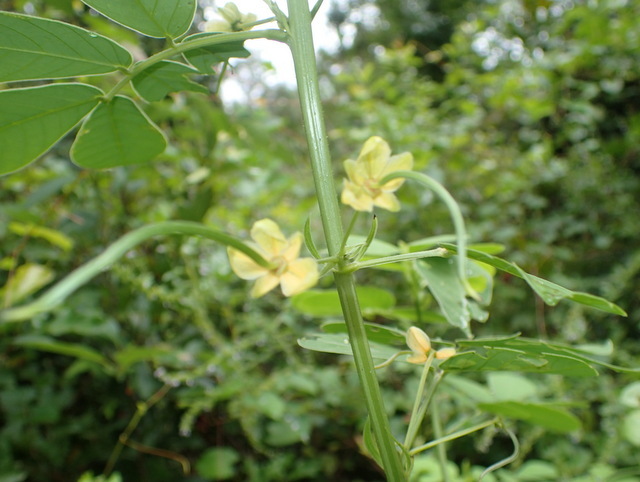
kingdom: Plantae
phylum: Tracheophyta
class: Magnoliopsida
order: Fabales
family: Fabaceae
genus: Senna
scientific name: Senna obtusifolia
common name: Java-bean
